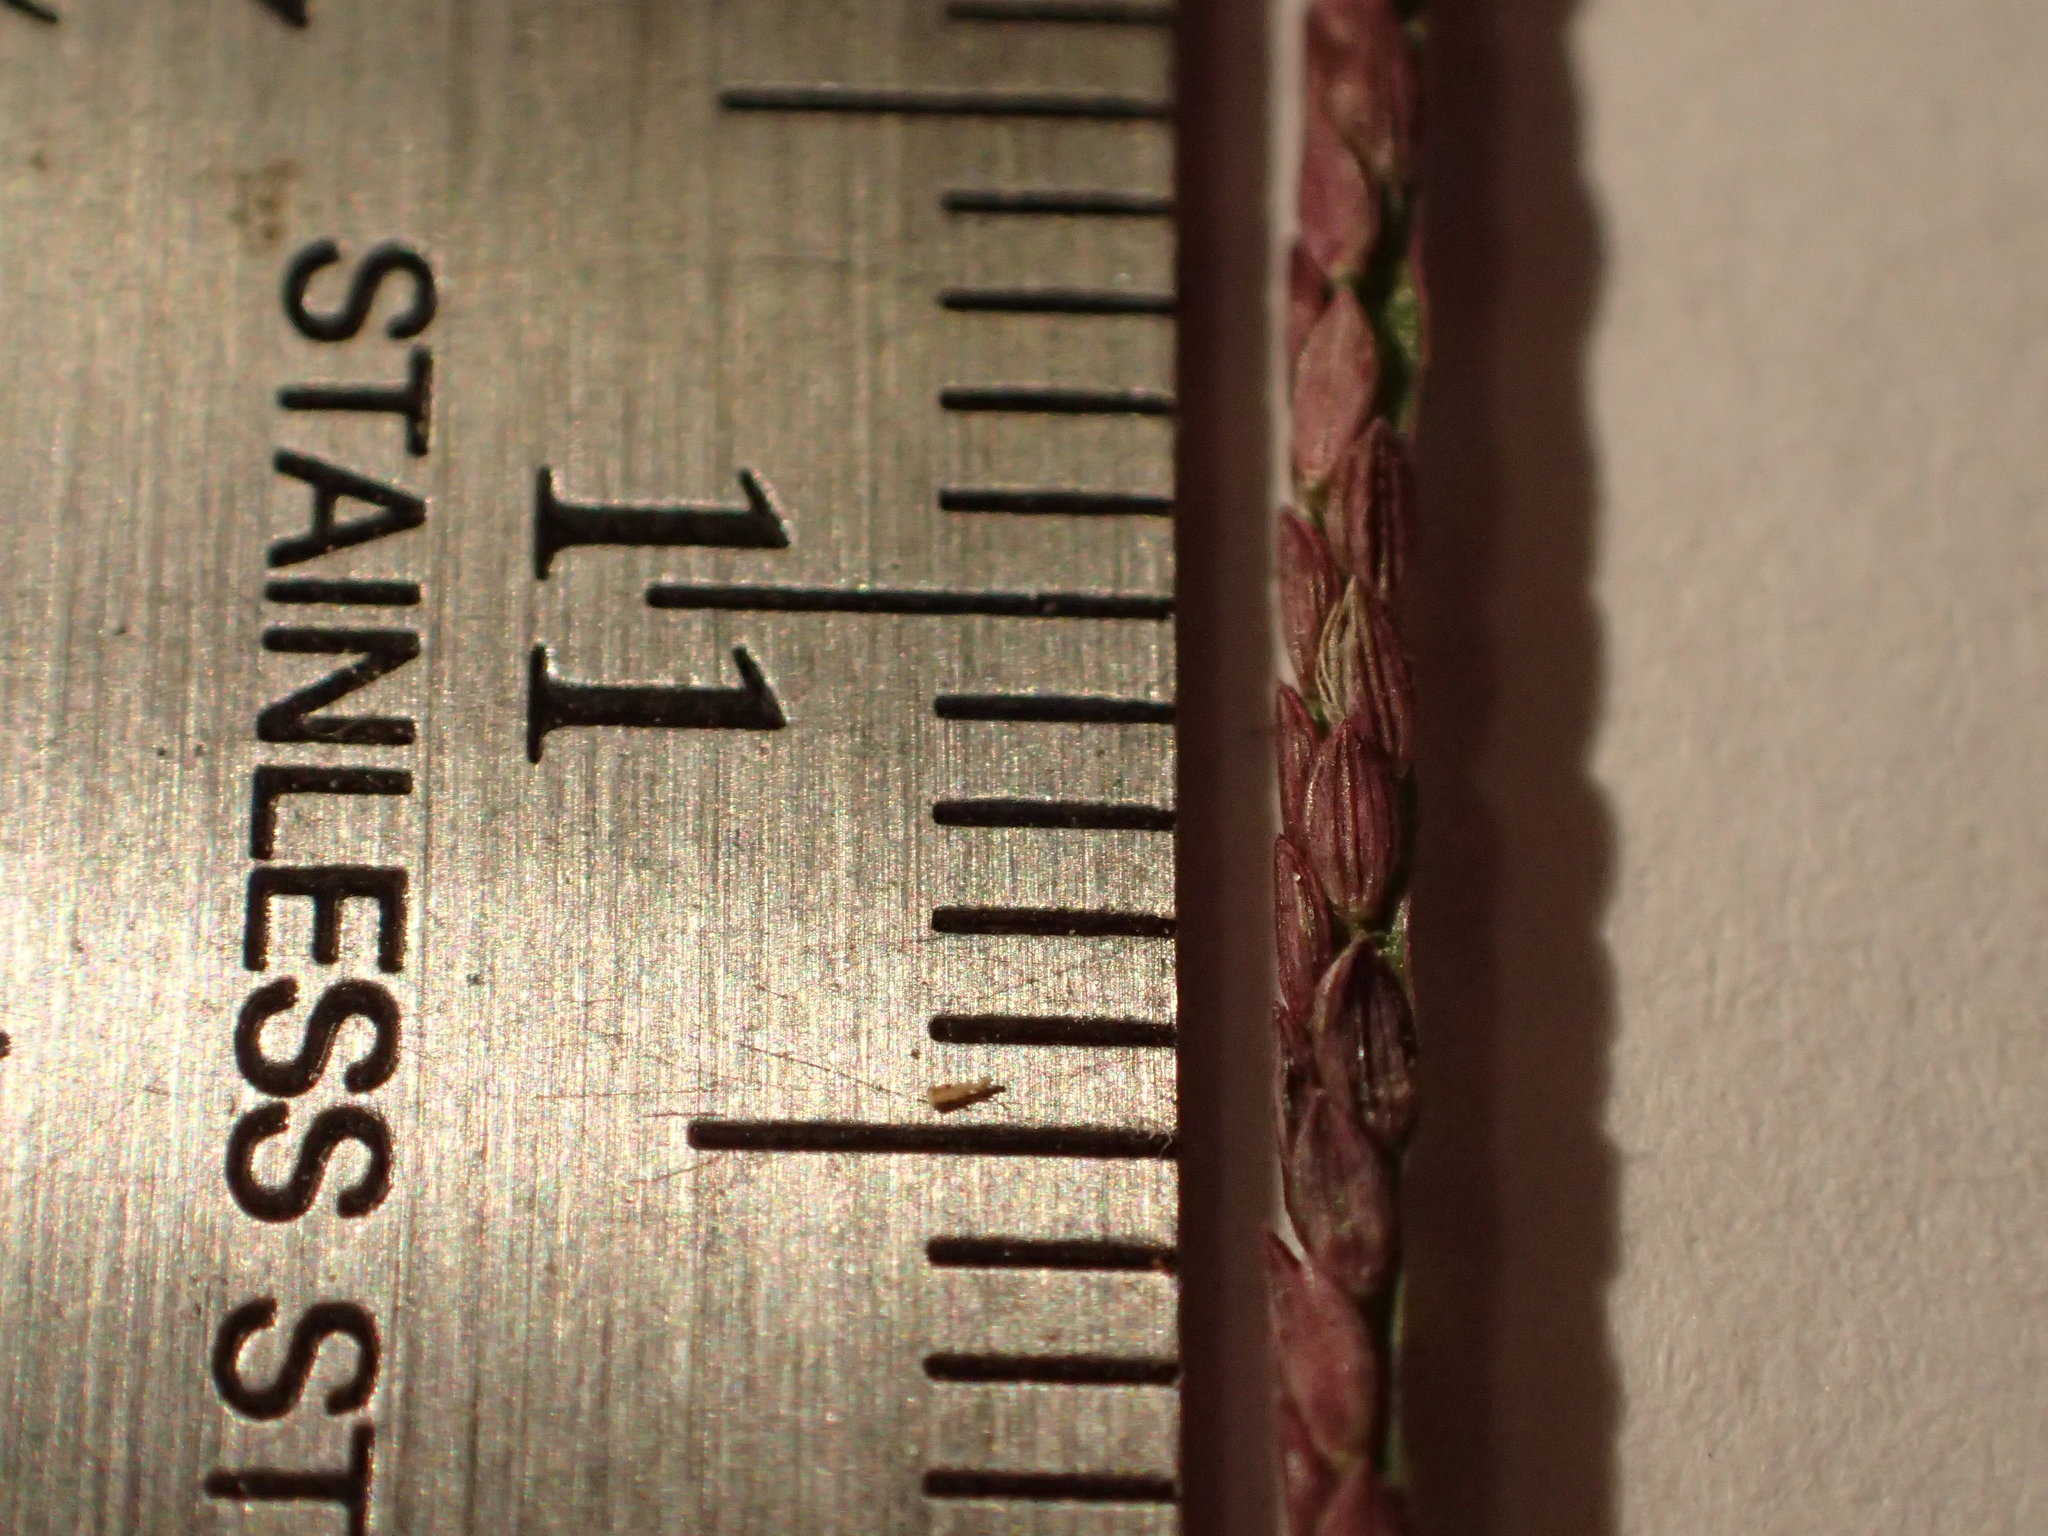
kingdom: Plantae
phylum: Tracheophyta
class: Liliopsida
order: Poales
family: Poaceae
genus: Digitaria
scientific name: Digitaria ischaemum
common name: Smooth crabgrass
